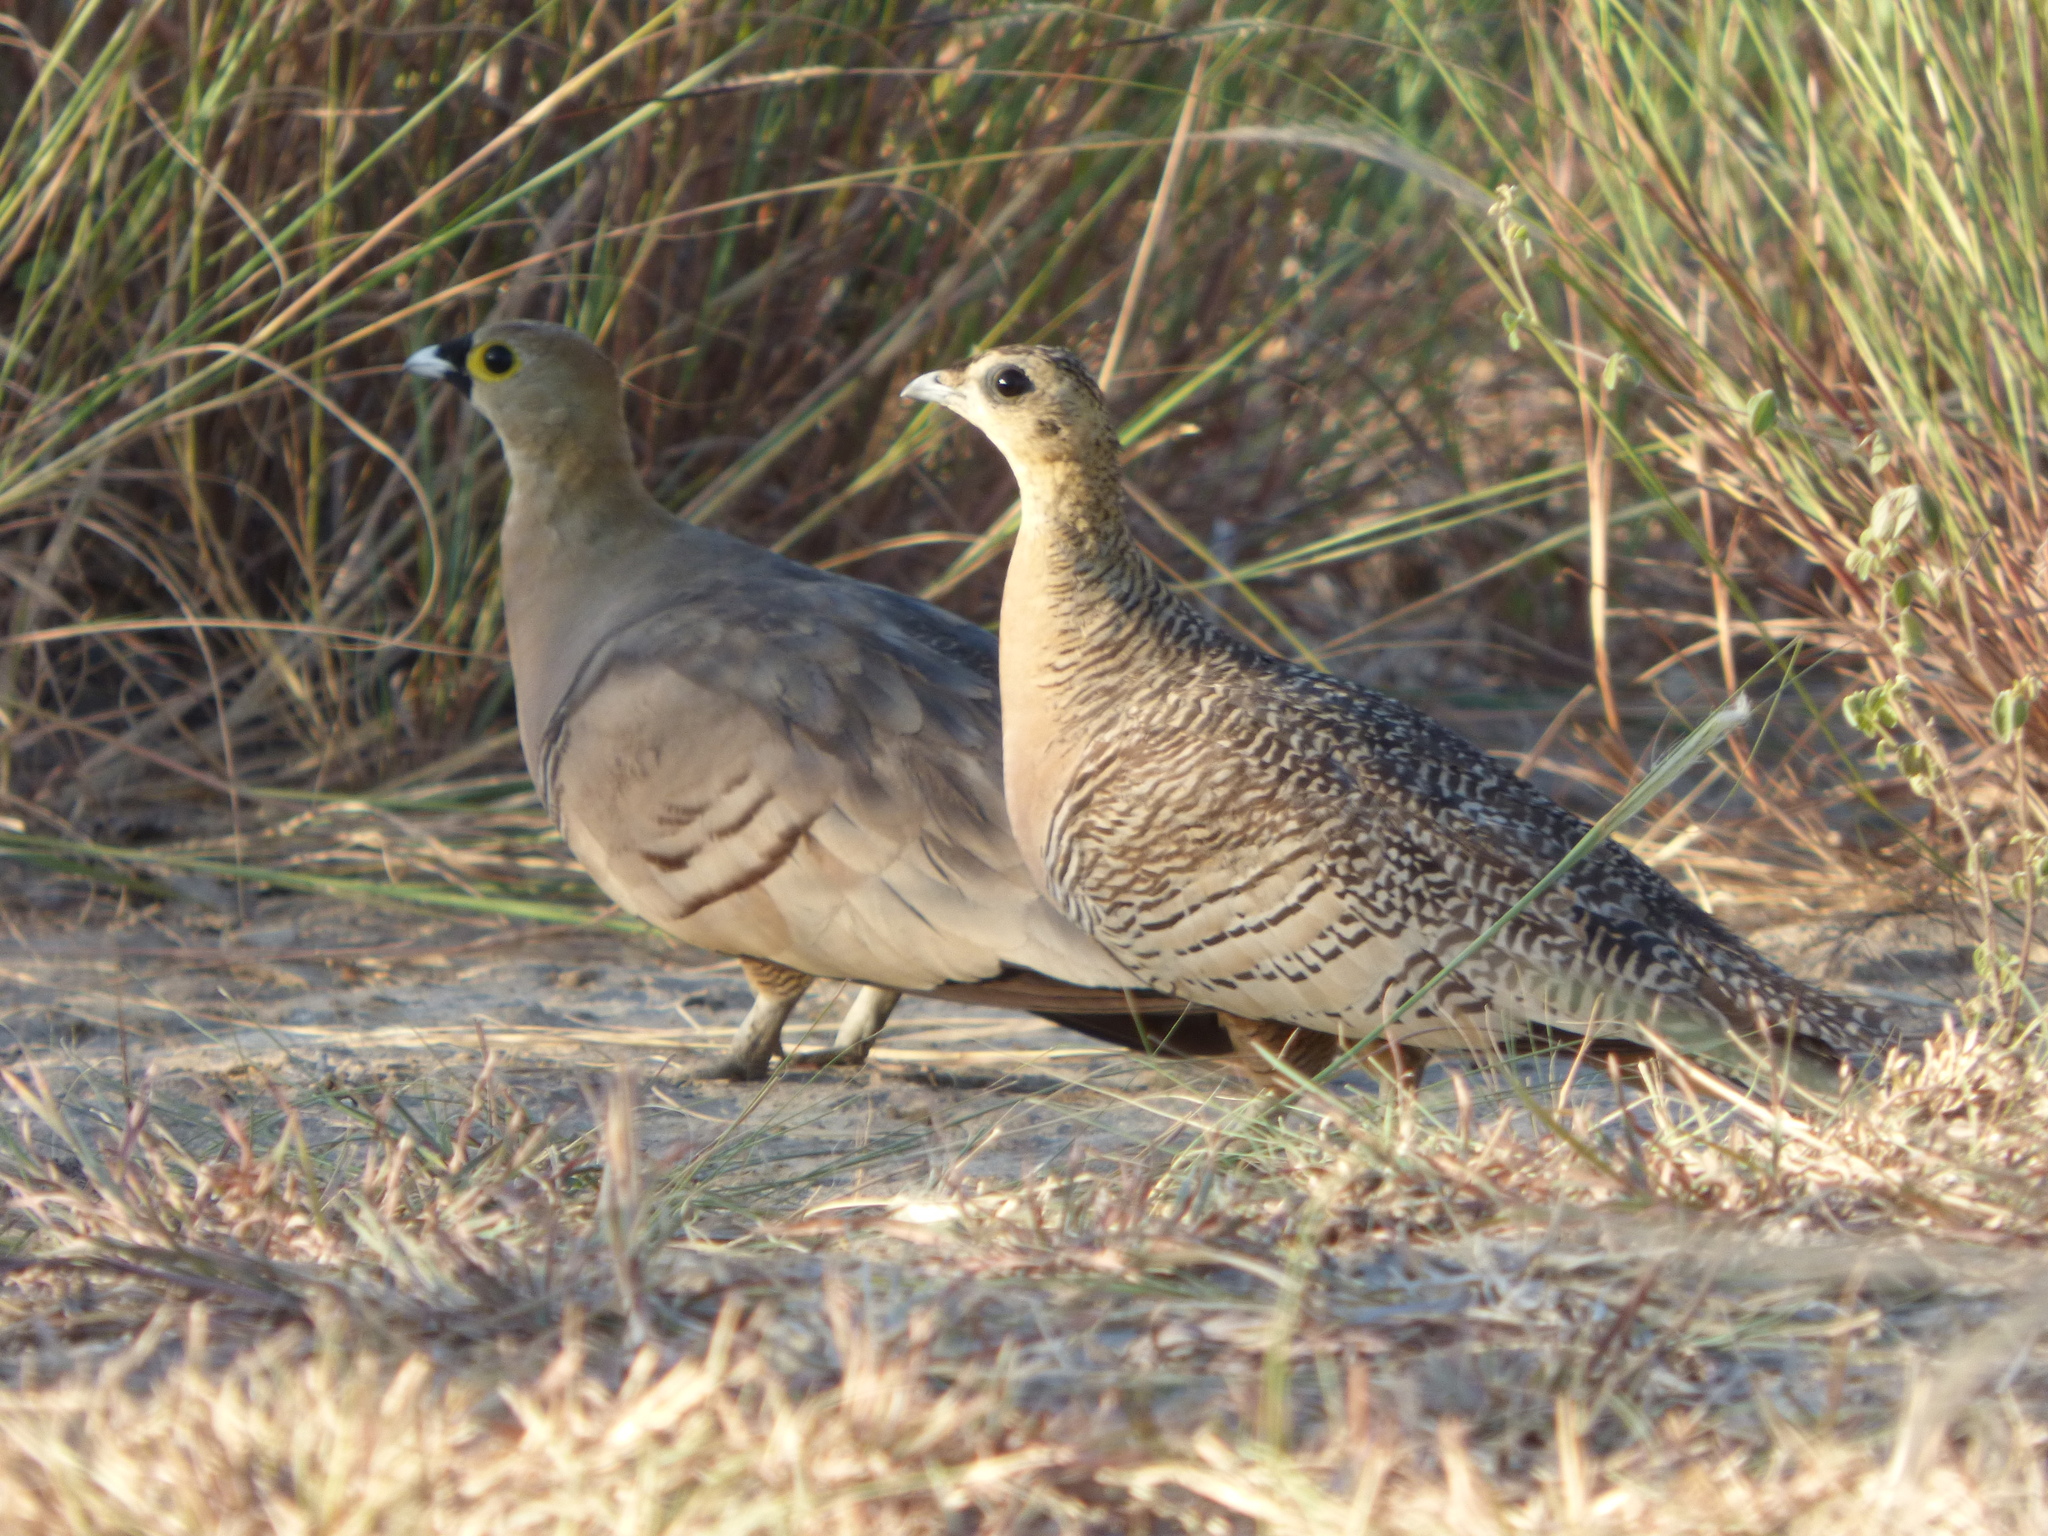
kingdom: Animalia
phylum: Chordata
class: Aves
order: Pteroclidiformes
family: Pteroclididae
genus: Pterocles
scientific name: Pterocles personatus
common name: Madagascar sandgrouse
